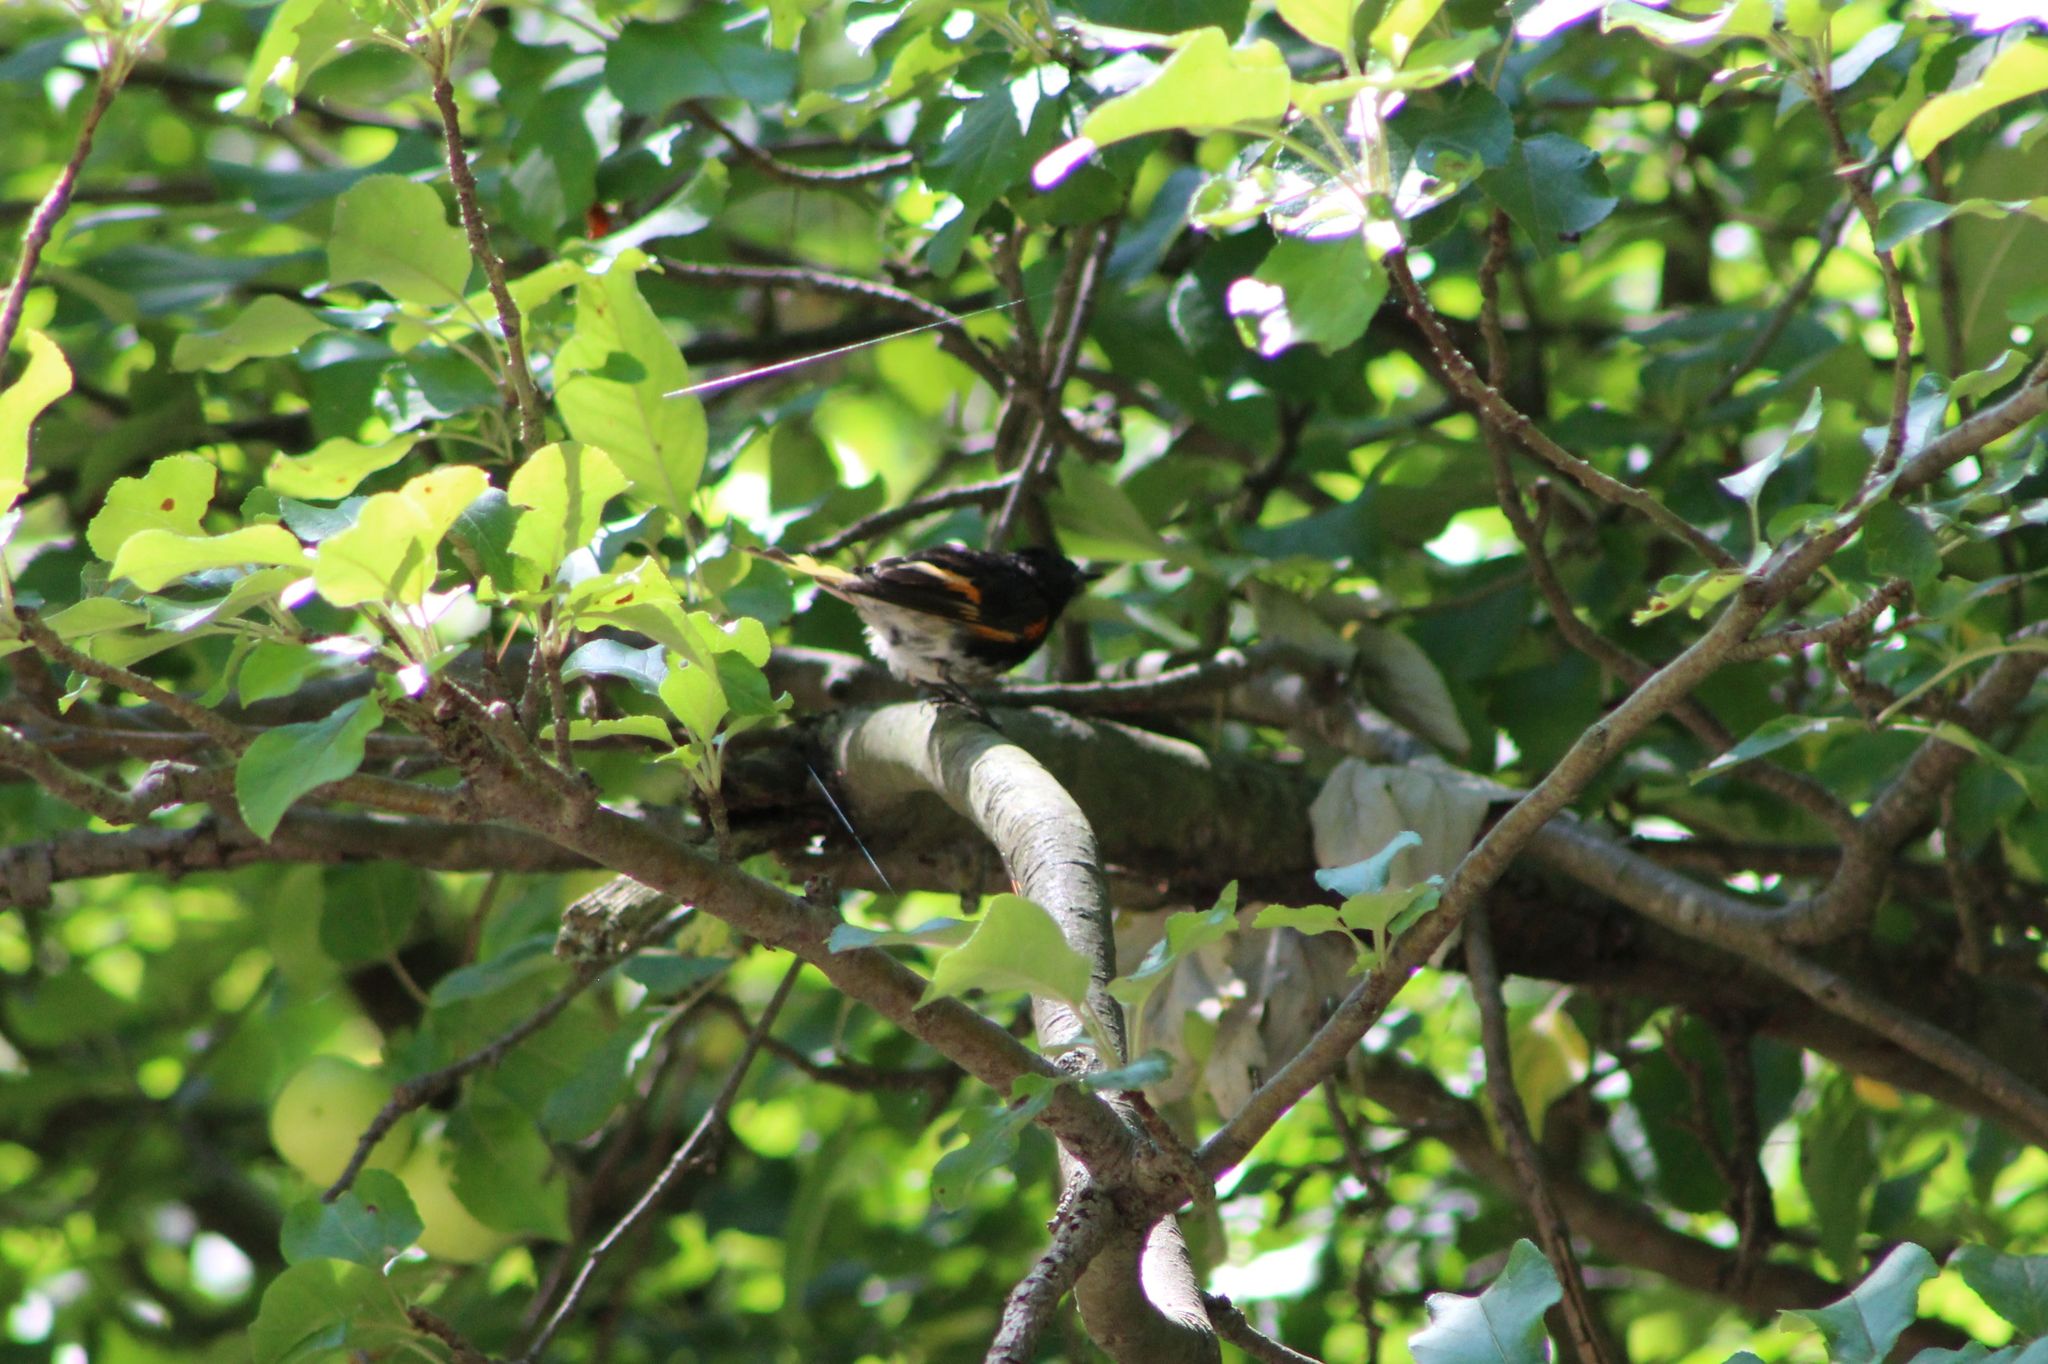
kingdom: Animalia
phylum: Chordata
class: Aves
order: Passeriformes
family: Parulidae
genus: Setophaga
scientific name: Setophaga ruticilla
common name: American redstart
